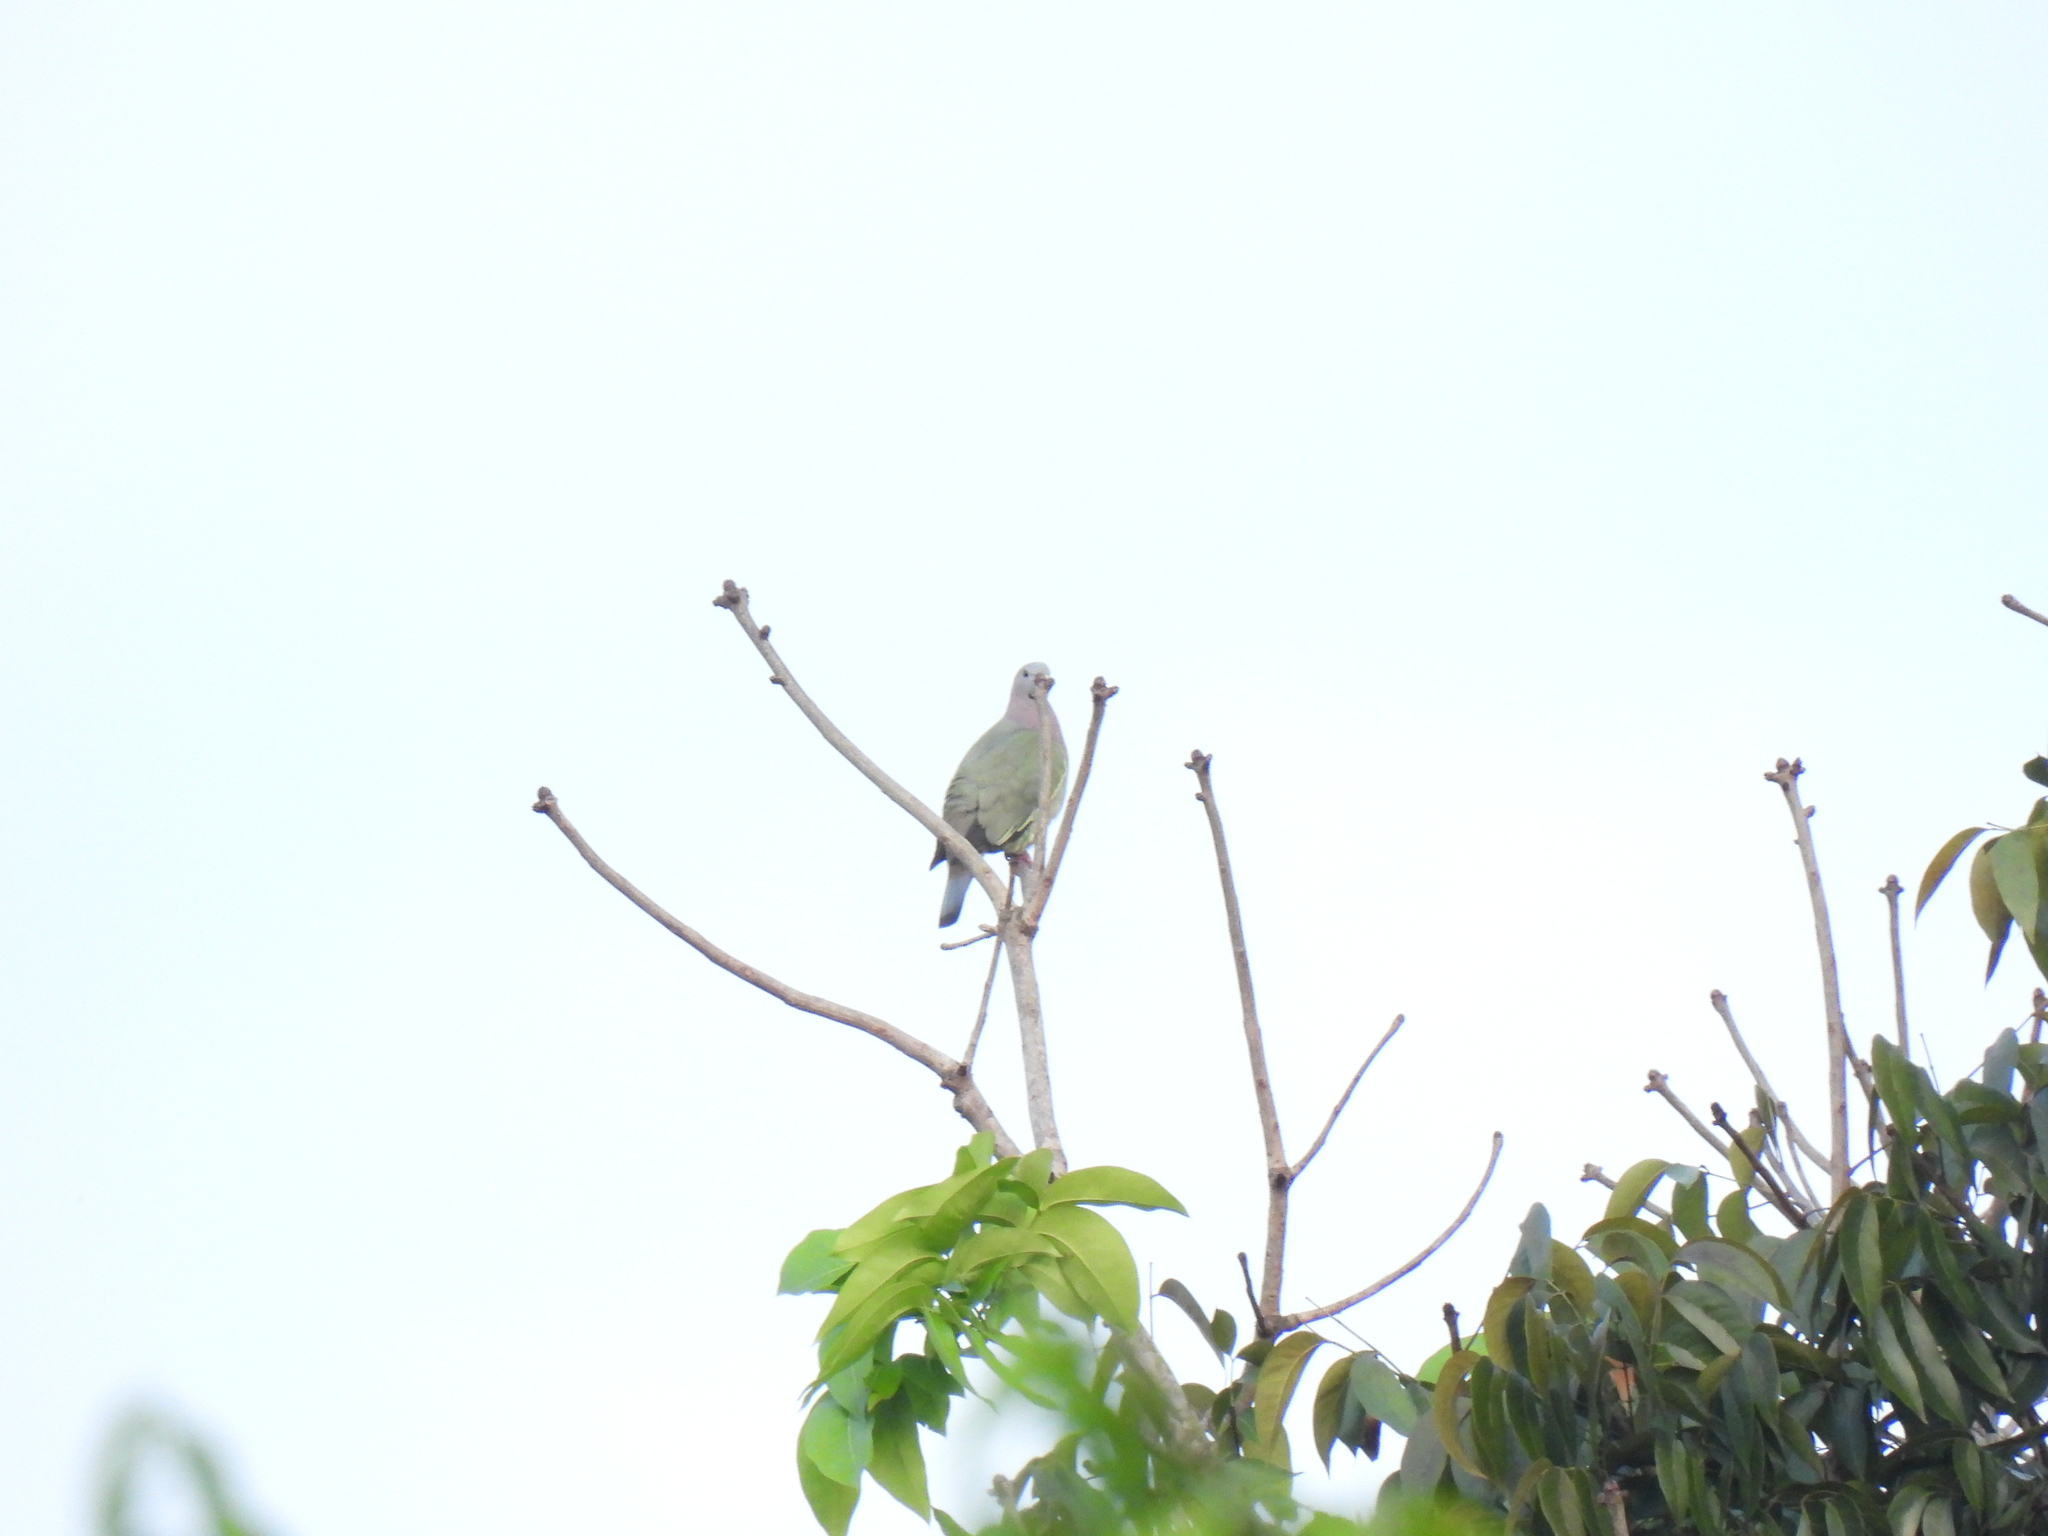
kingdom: Animalia
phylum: Chordata
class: Aves
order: Columbiformes
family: Columbidae
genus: Treron
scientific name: Treron vernans
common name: Pink-necked green pigeon
